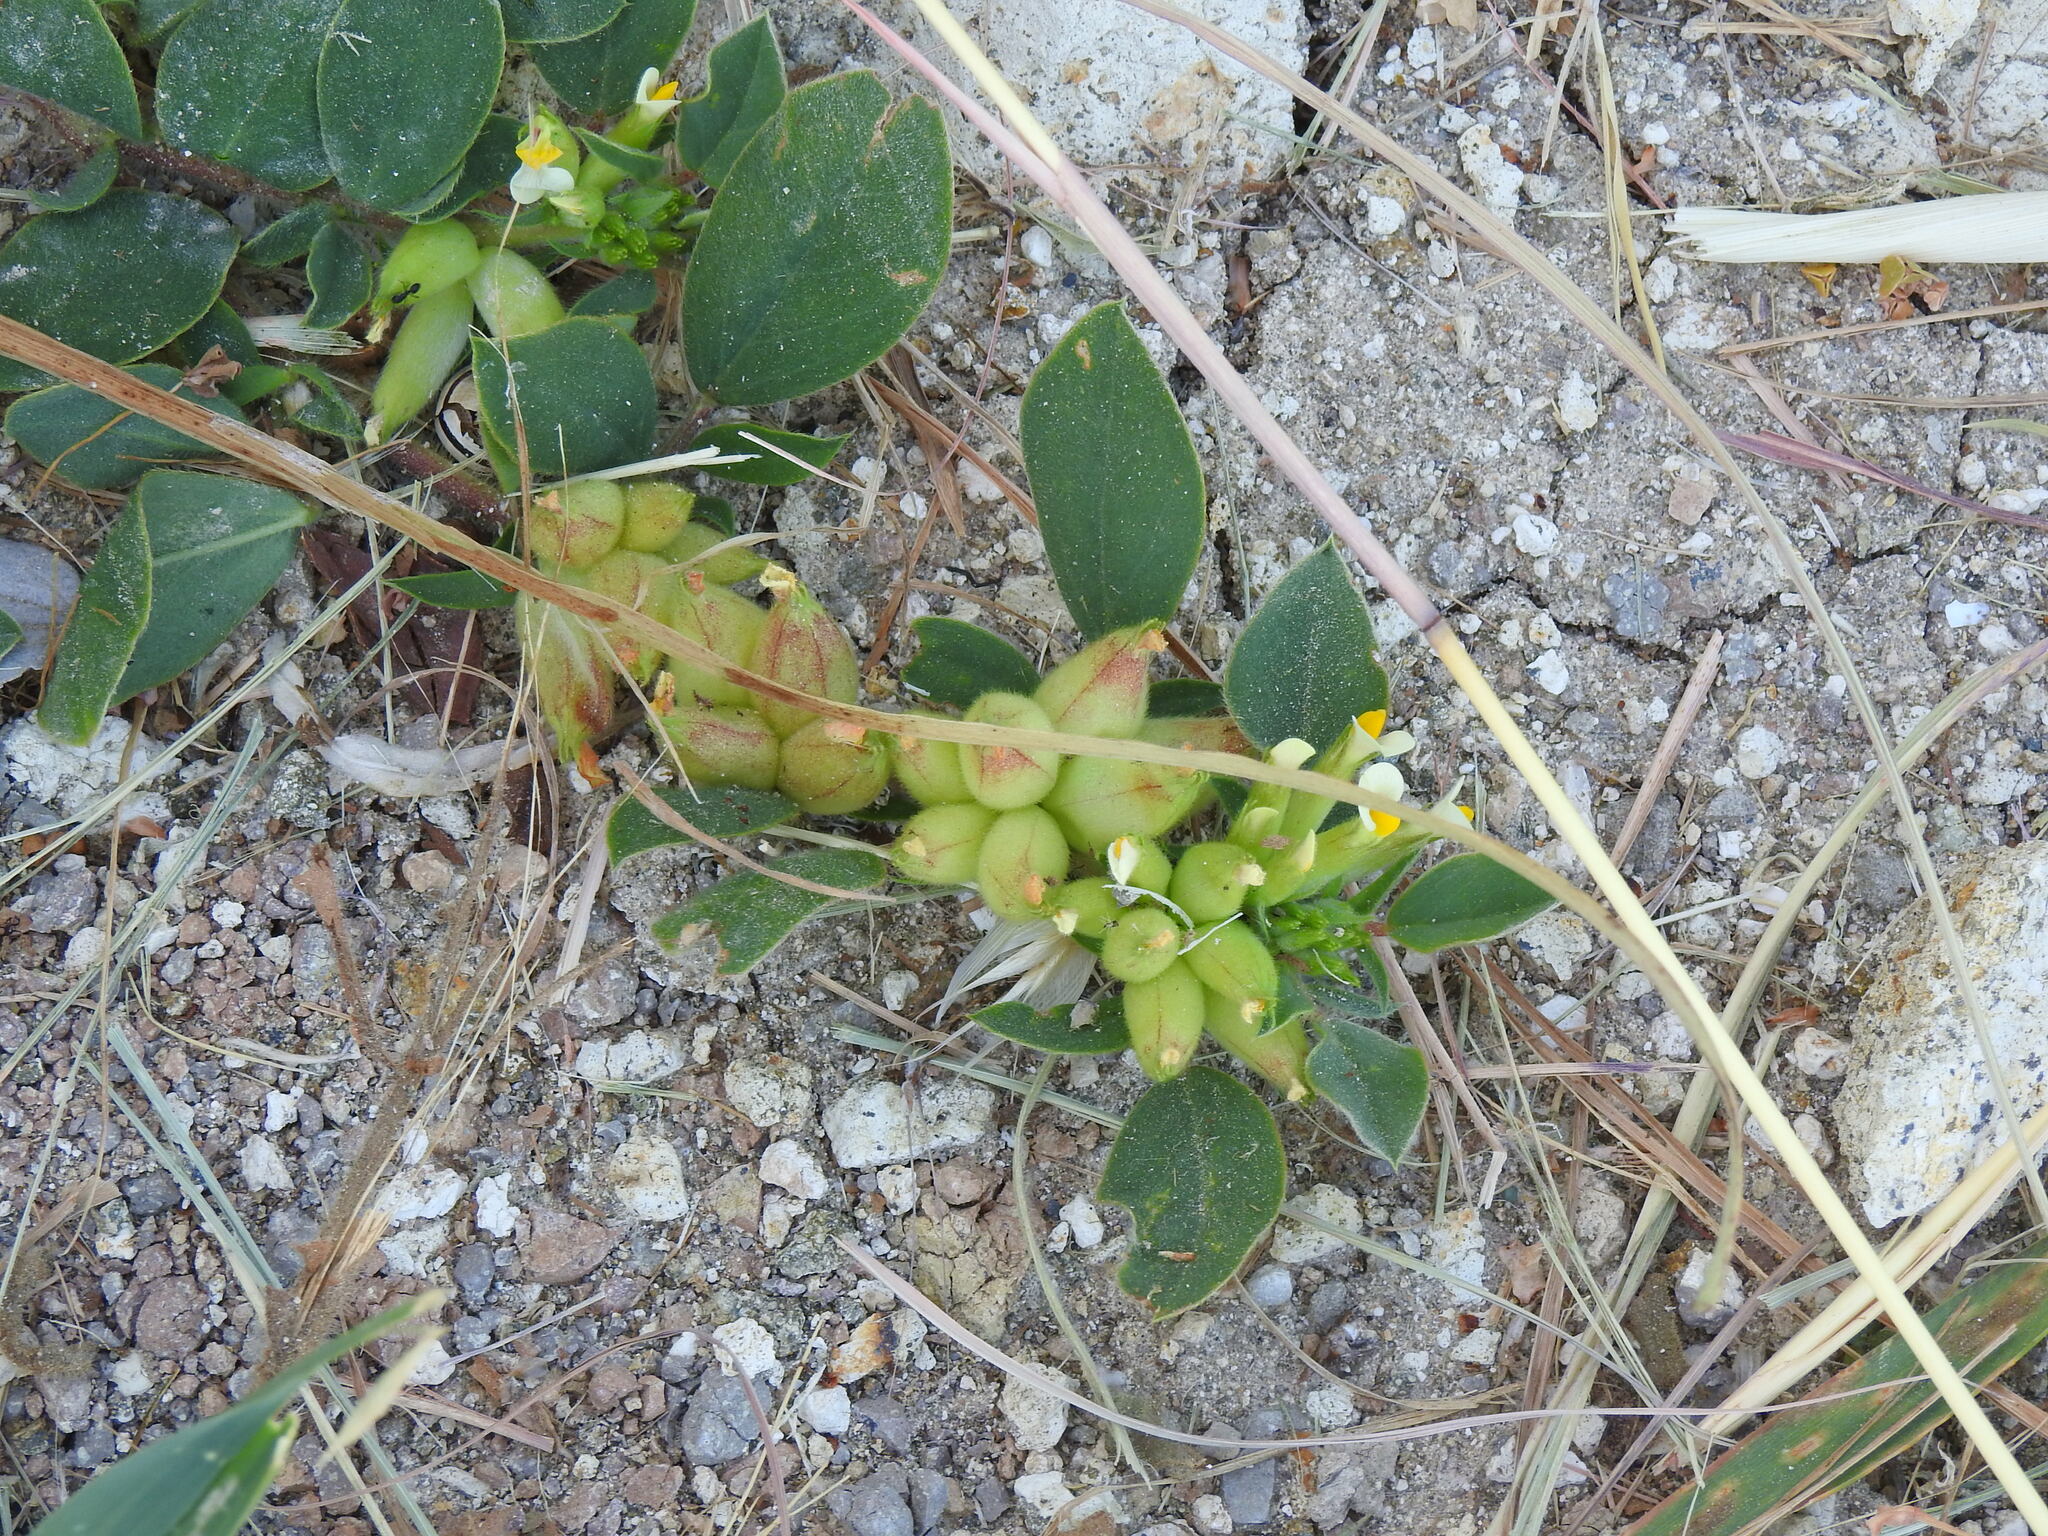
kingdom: Plantae
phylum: Tracheophyta
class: Magnoliopsida
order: Fabales
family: Fabaceae
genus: Tripodion
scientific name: Tripodion tetraphyllum
